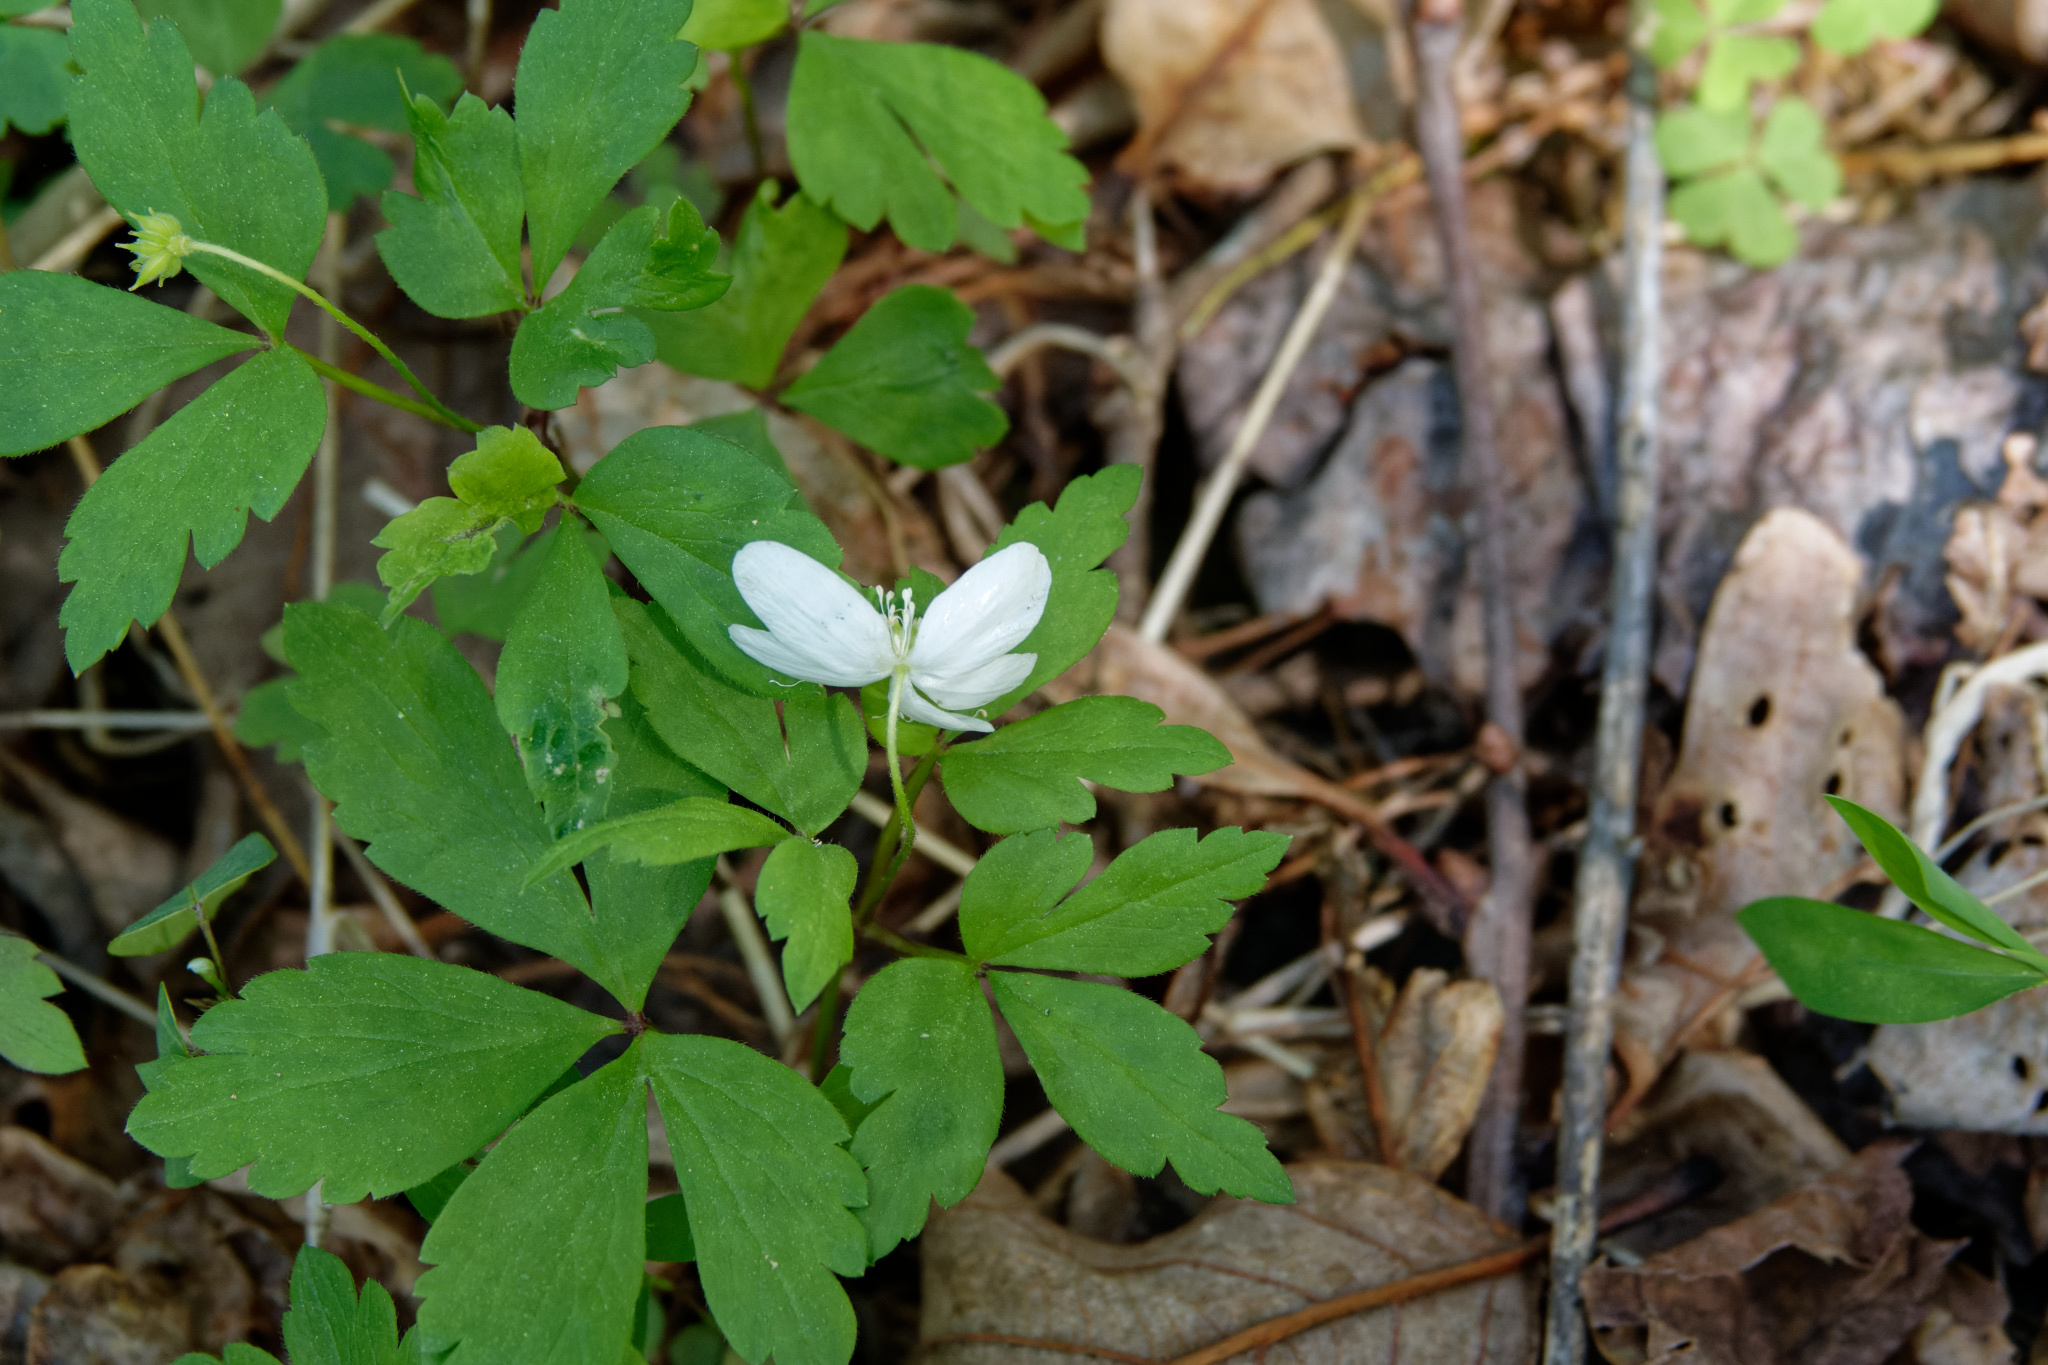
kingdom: Plantae
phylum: Tracheophyta
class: Magnoliopsida
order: Ranunculales
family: Ranunculaceae
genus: Anemone
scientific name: Anemone quinquefolia
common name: Wood anemone
